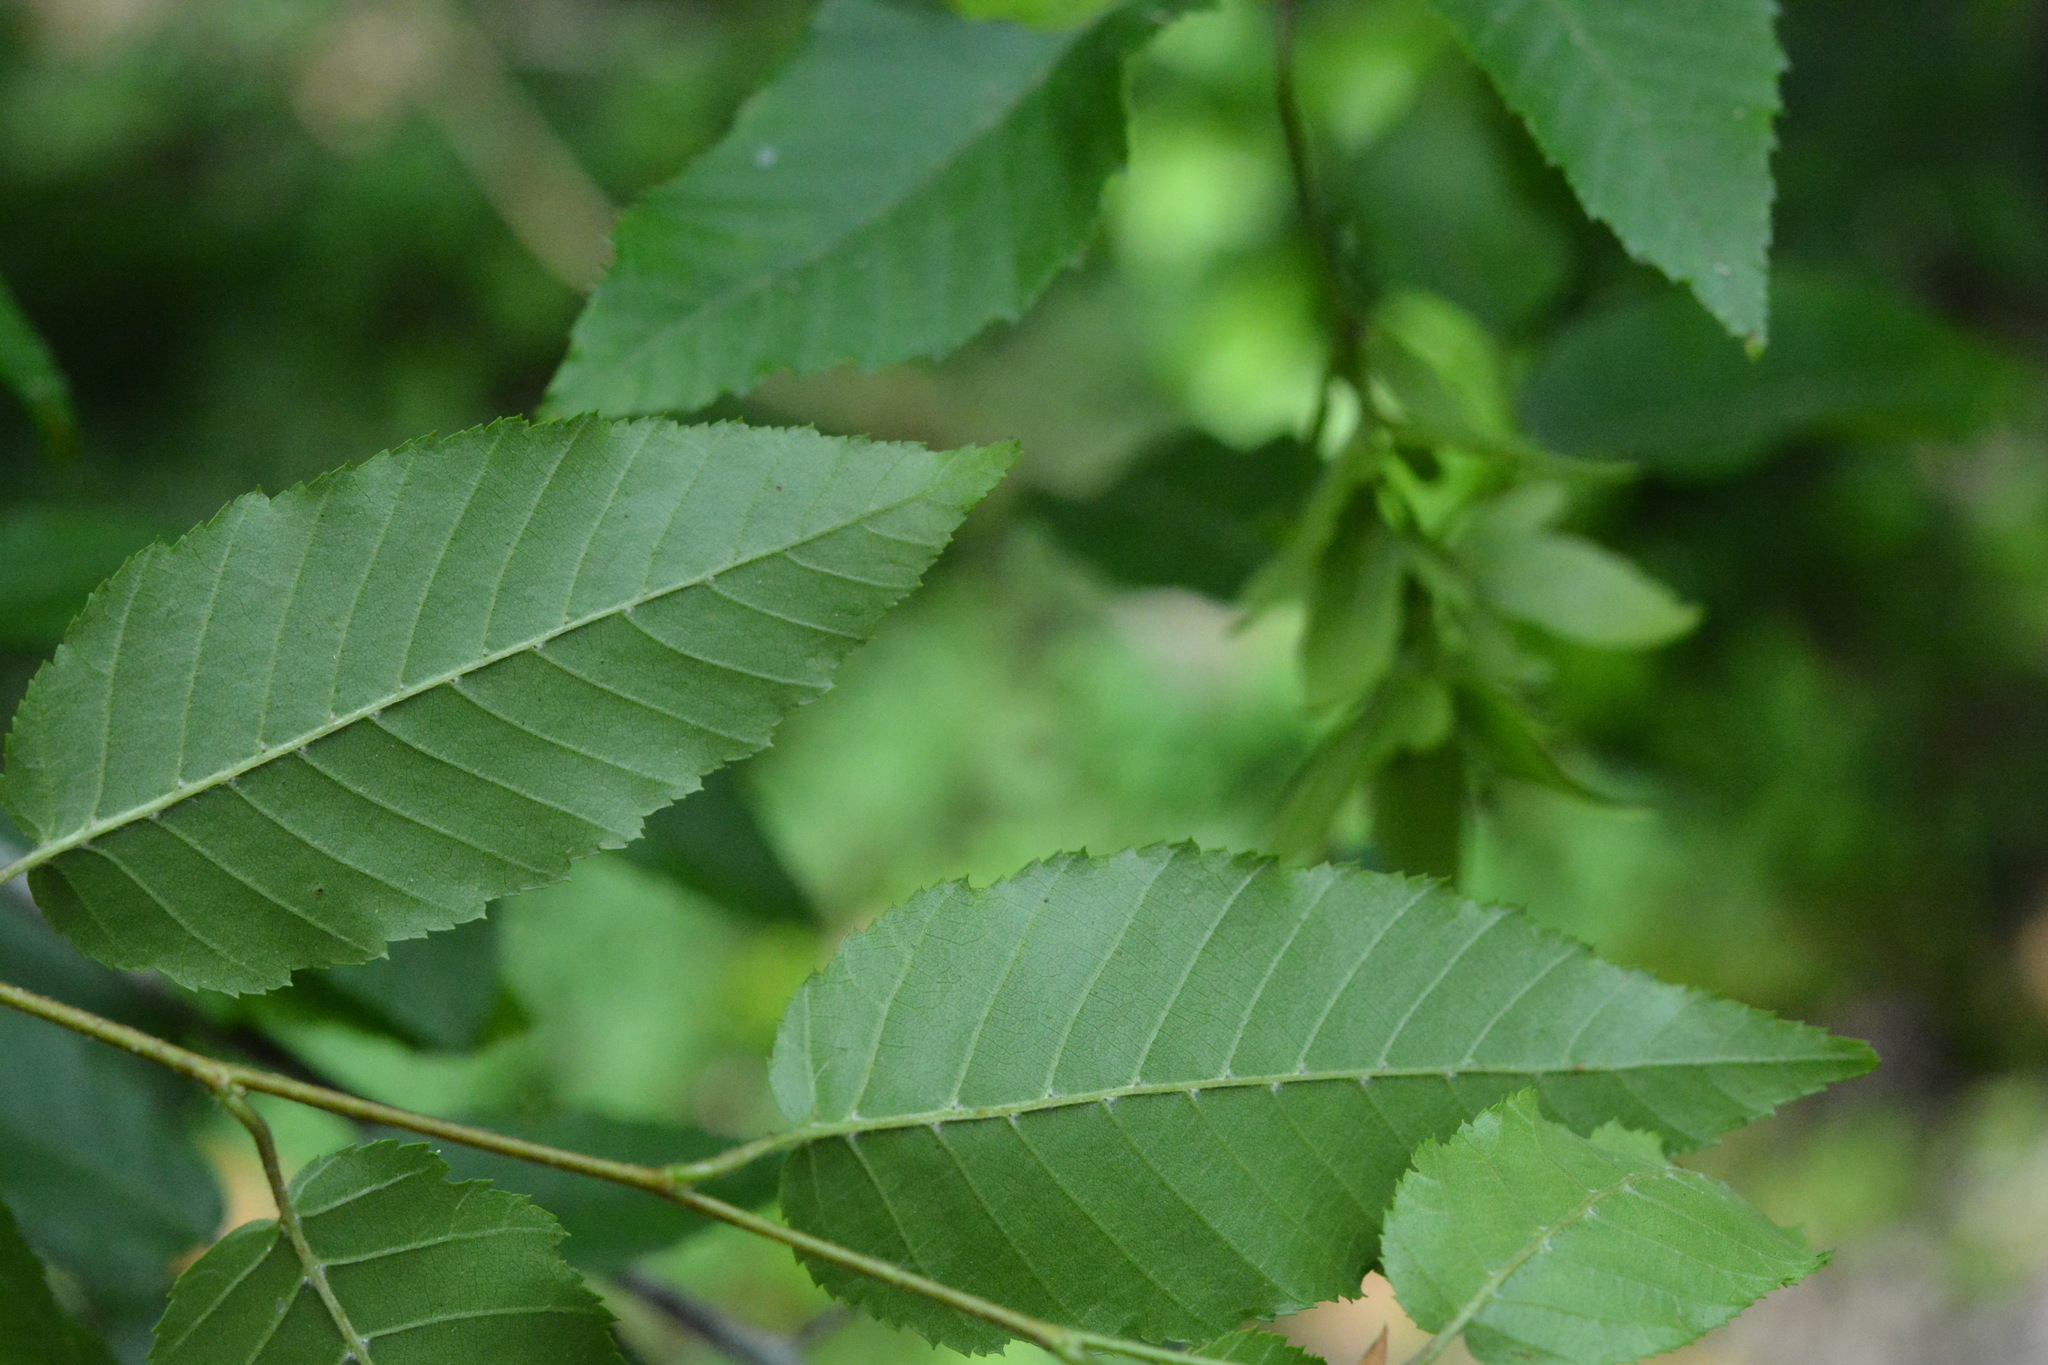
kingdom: Plantae
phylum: Tracheophyta
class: Magnoliopsida
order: Fagales
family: Betulaceae
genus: Carpinus
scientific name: Carpinus caroliniana
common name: American hornbeam
